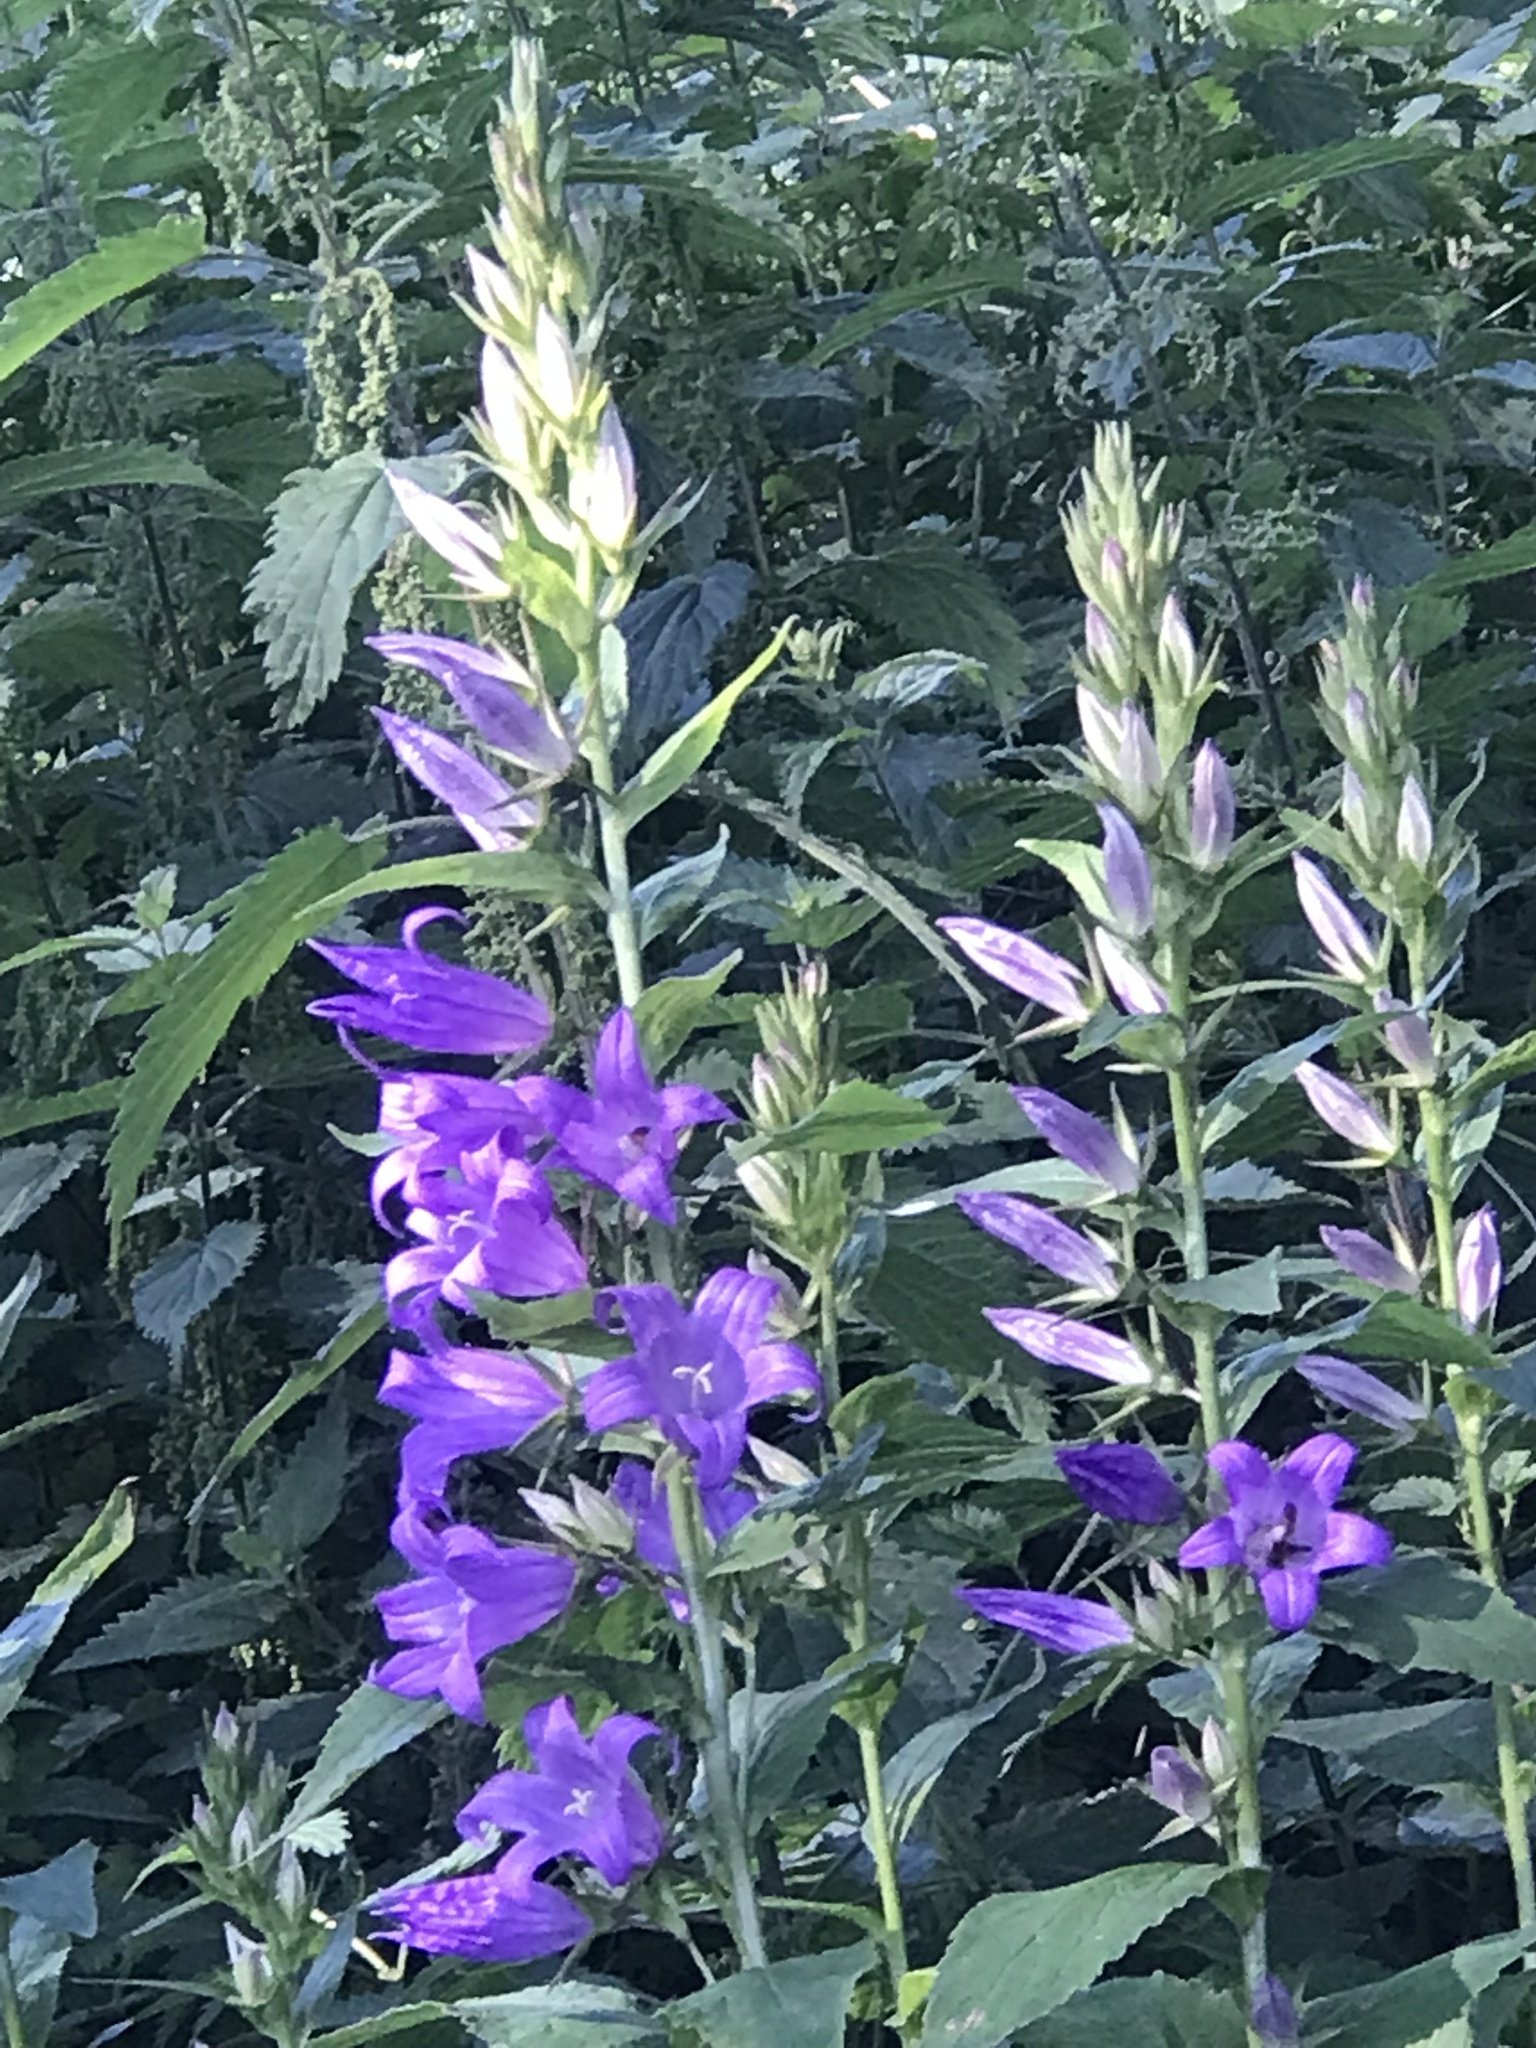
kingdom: Plantae
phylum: Tracheophyta
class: Magnoliopsida
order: Asterales
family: Campanulaceae
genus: Campanula
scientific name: Campanula latifolia
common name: Giant bellflower
